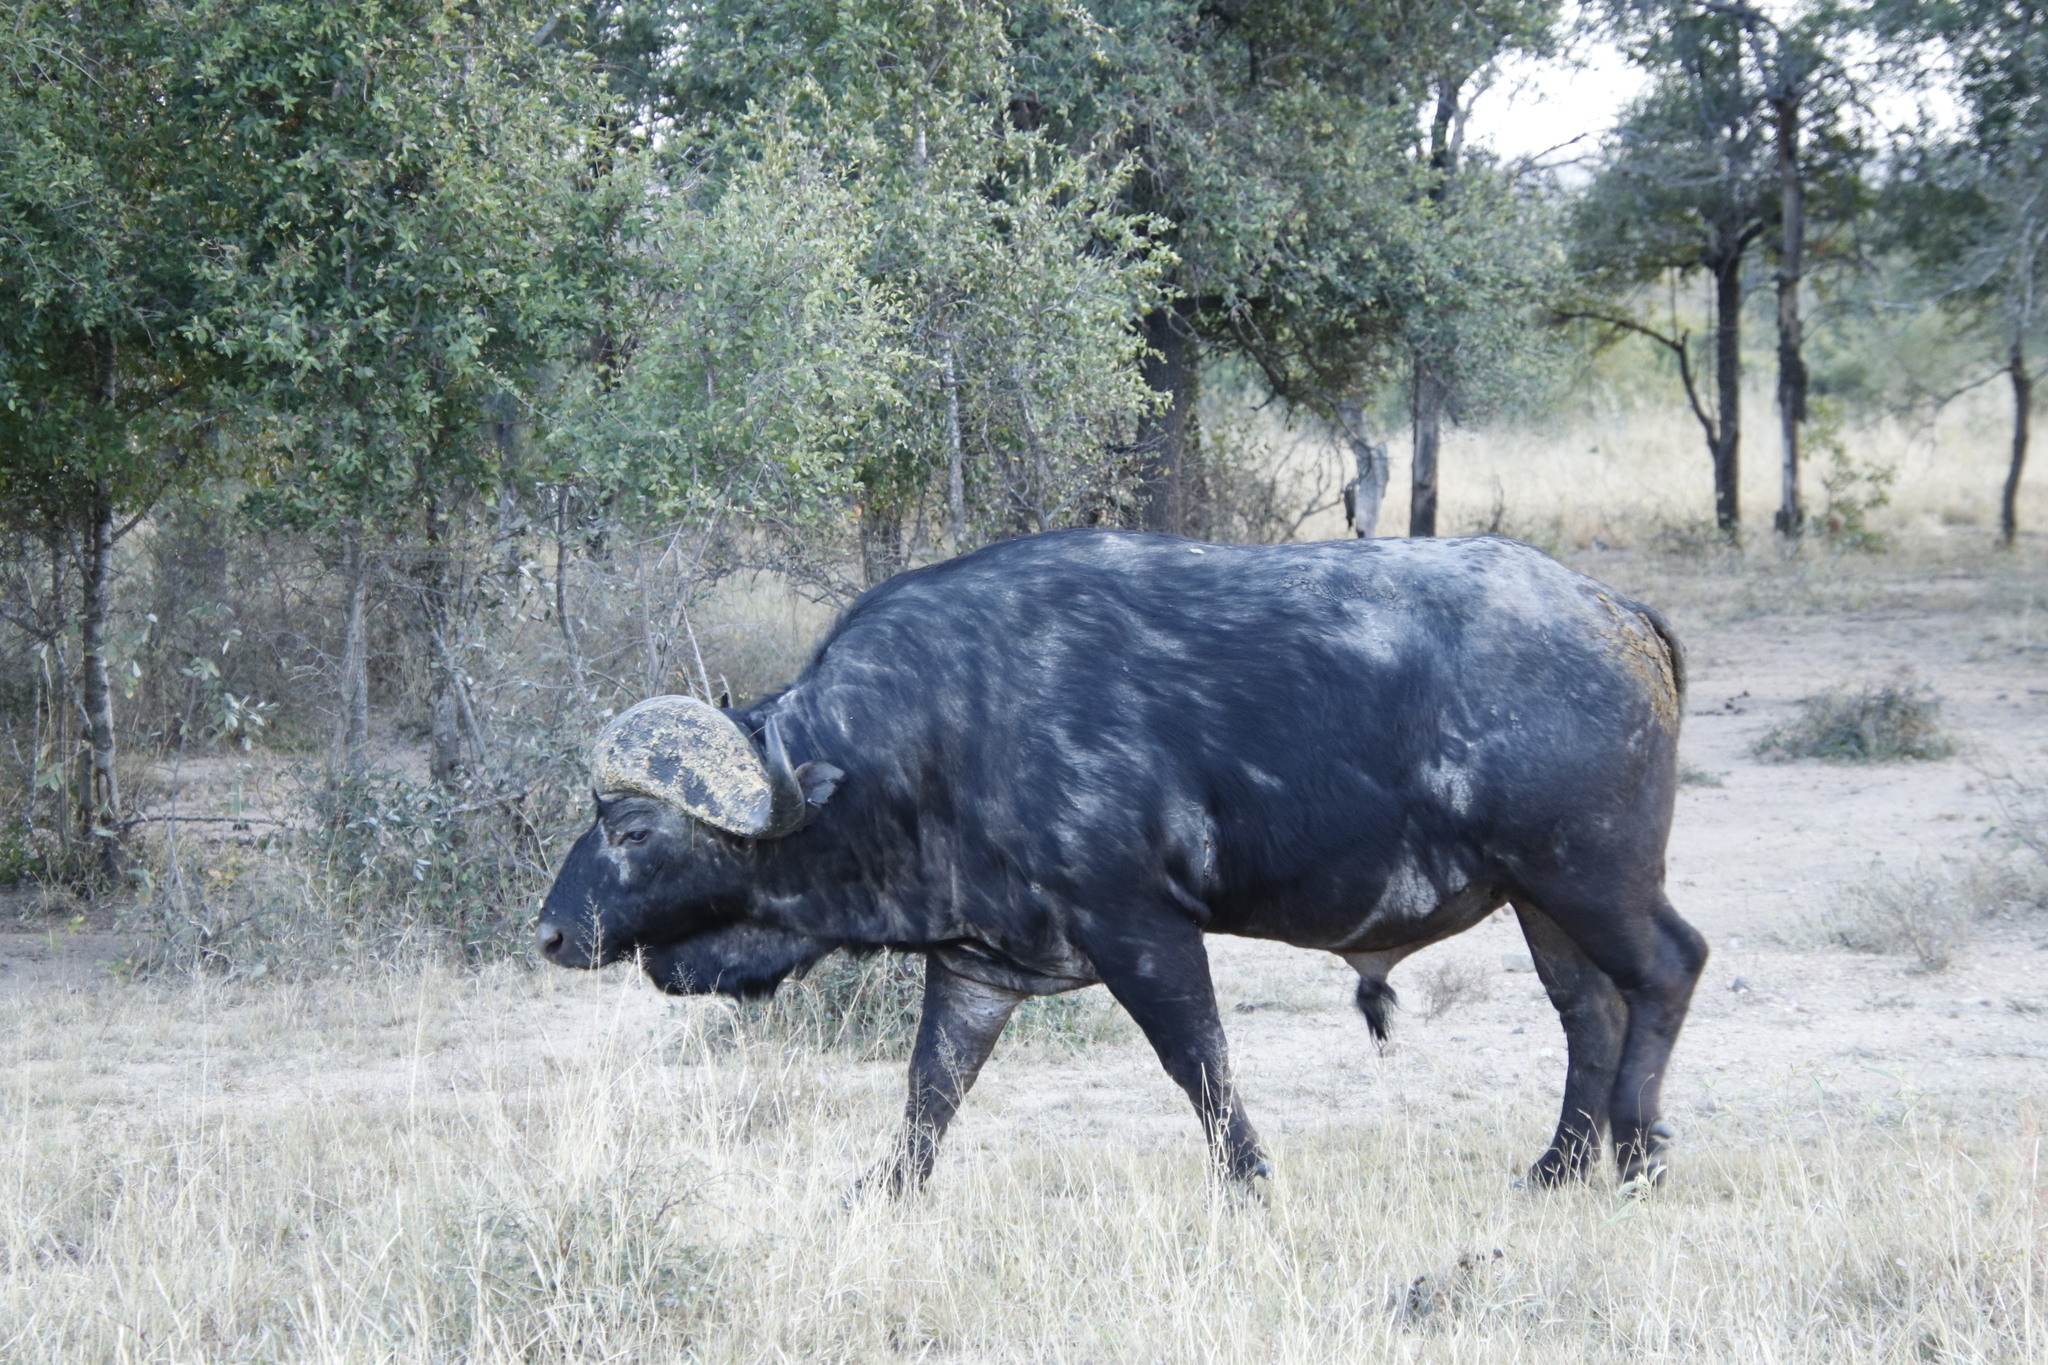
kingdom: Animalia
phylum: Chordata
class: Mammalia
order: Artiodactyla
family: Bovidae
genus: Syncerus
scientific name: Syncerus caffer
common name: African buffalo
